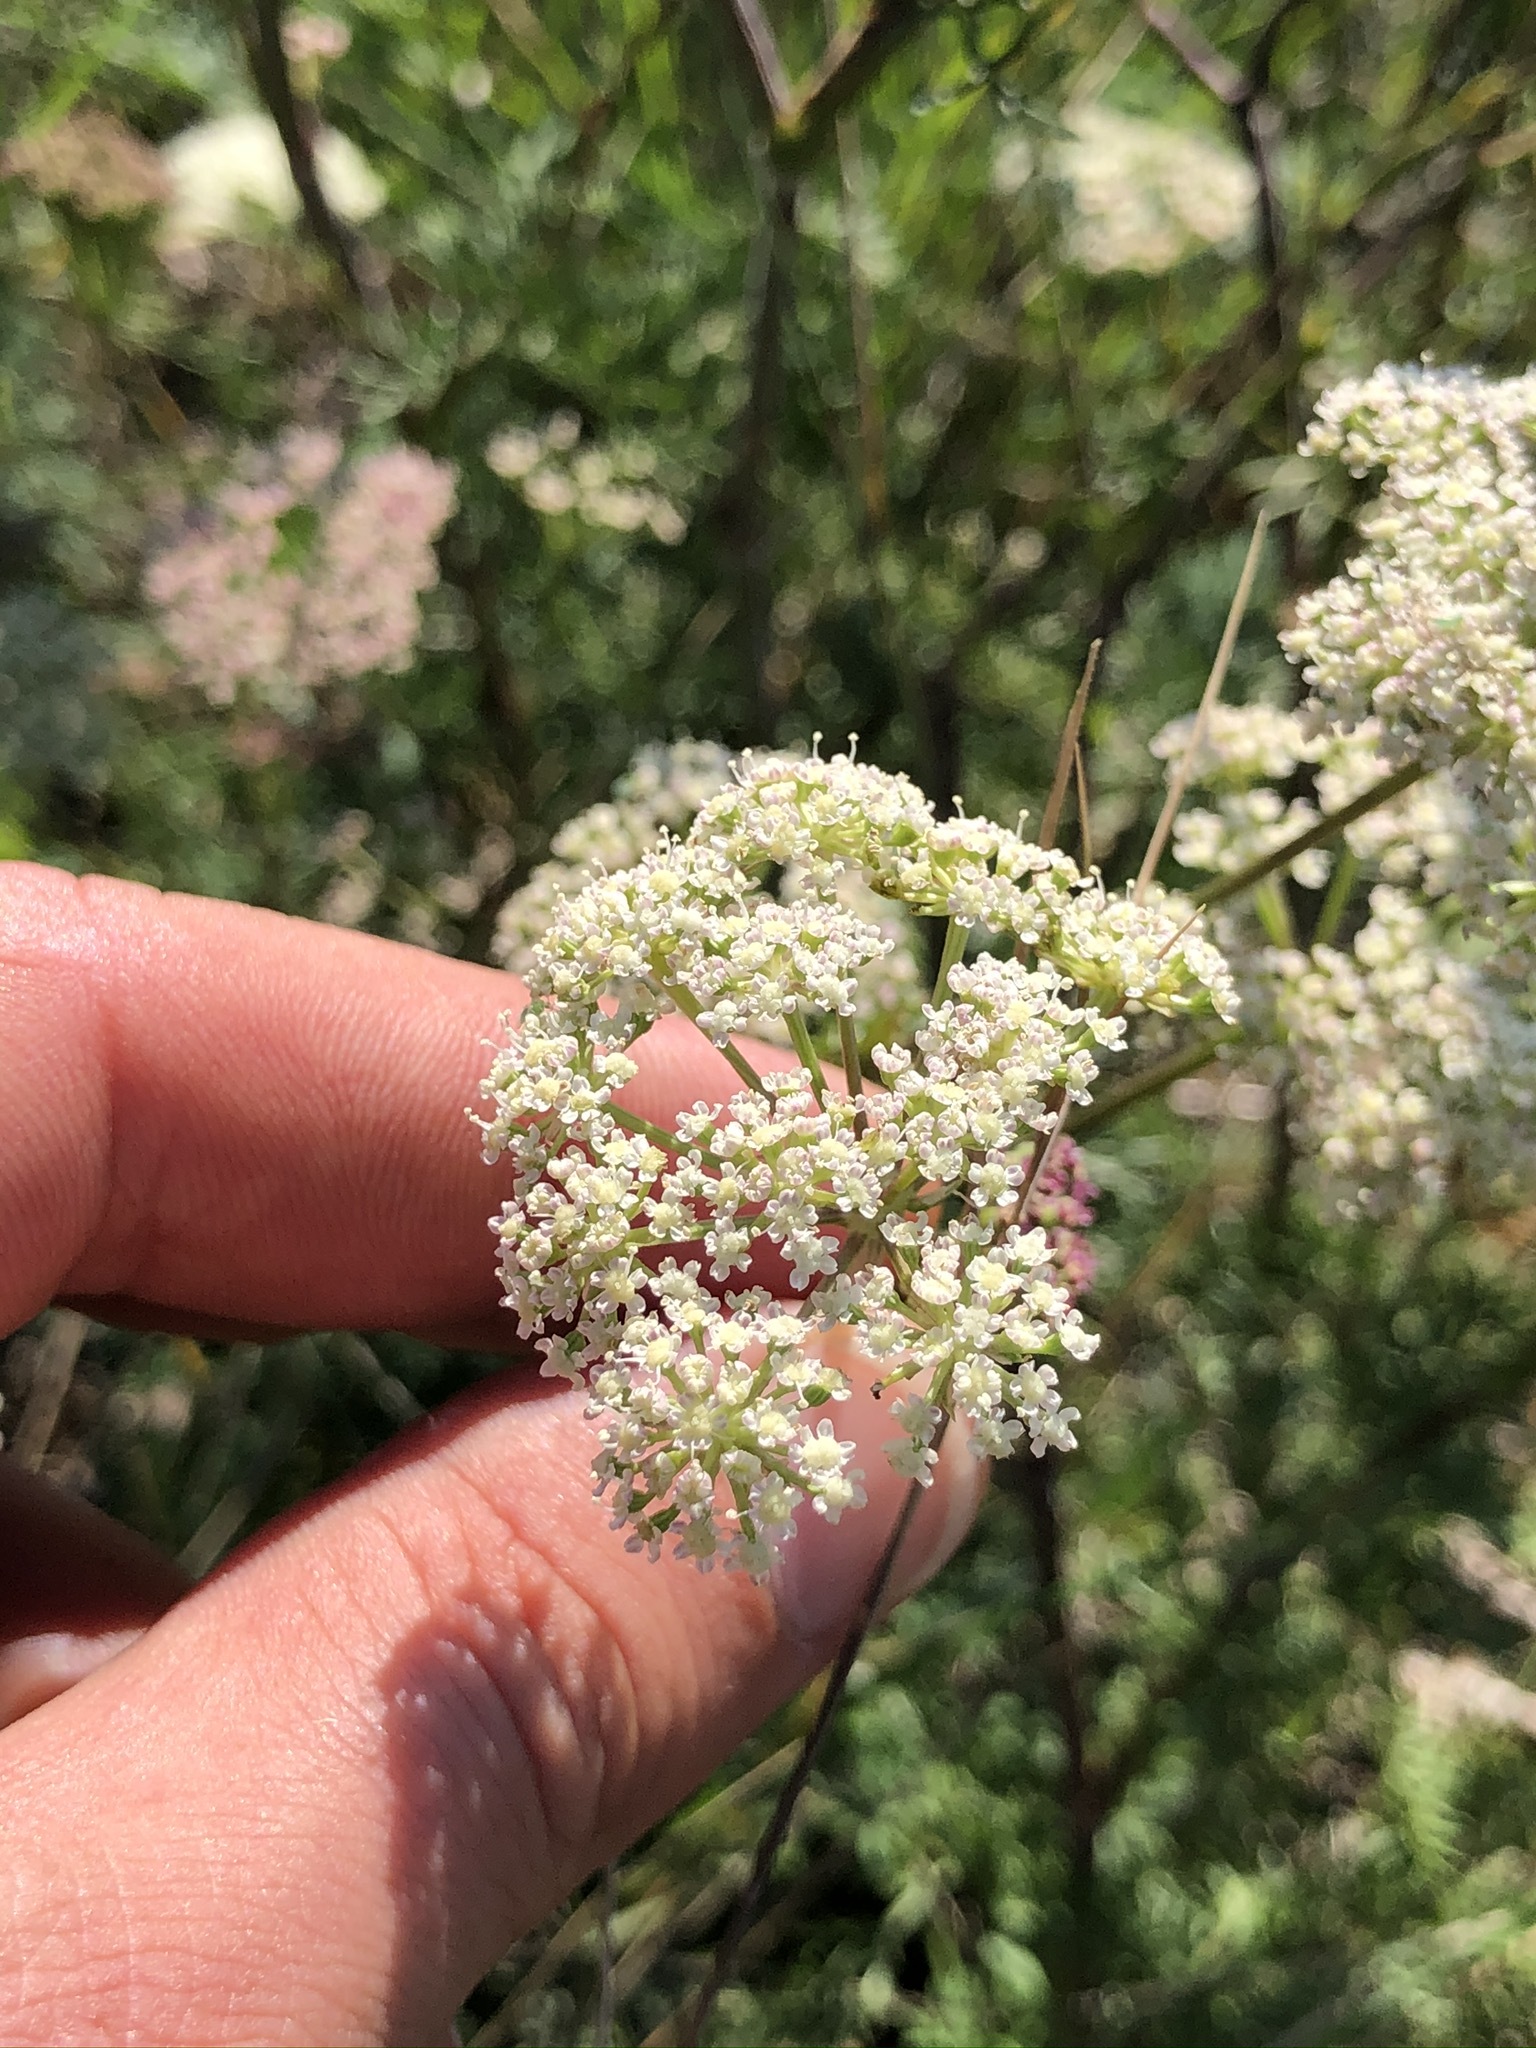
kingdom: Plantae
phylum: Tracheophyta
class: Magnoliopsida
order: Apiales
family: Apiaceae
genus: Seseli
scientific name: Seseli annuum
